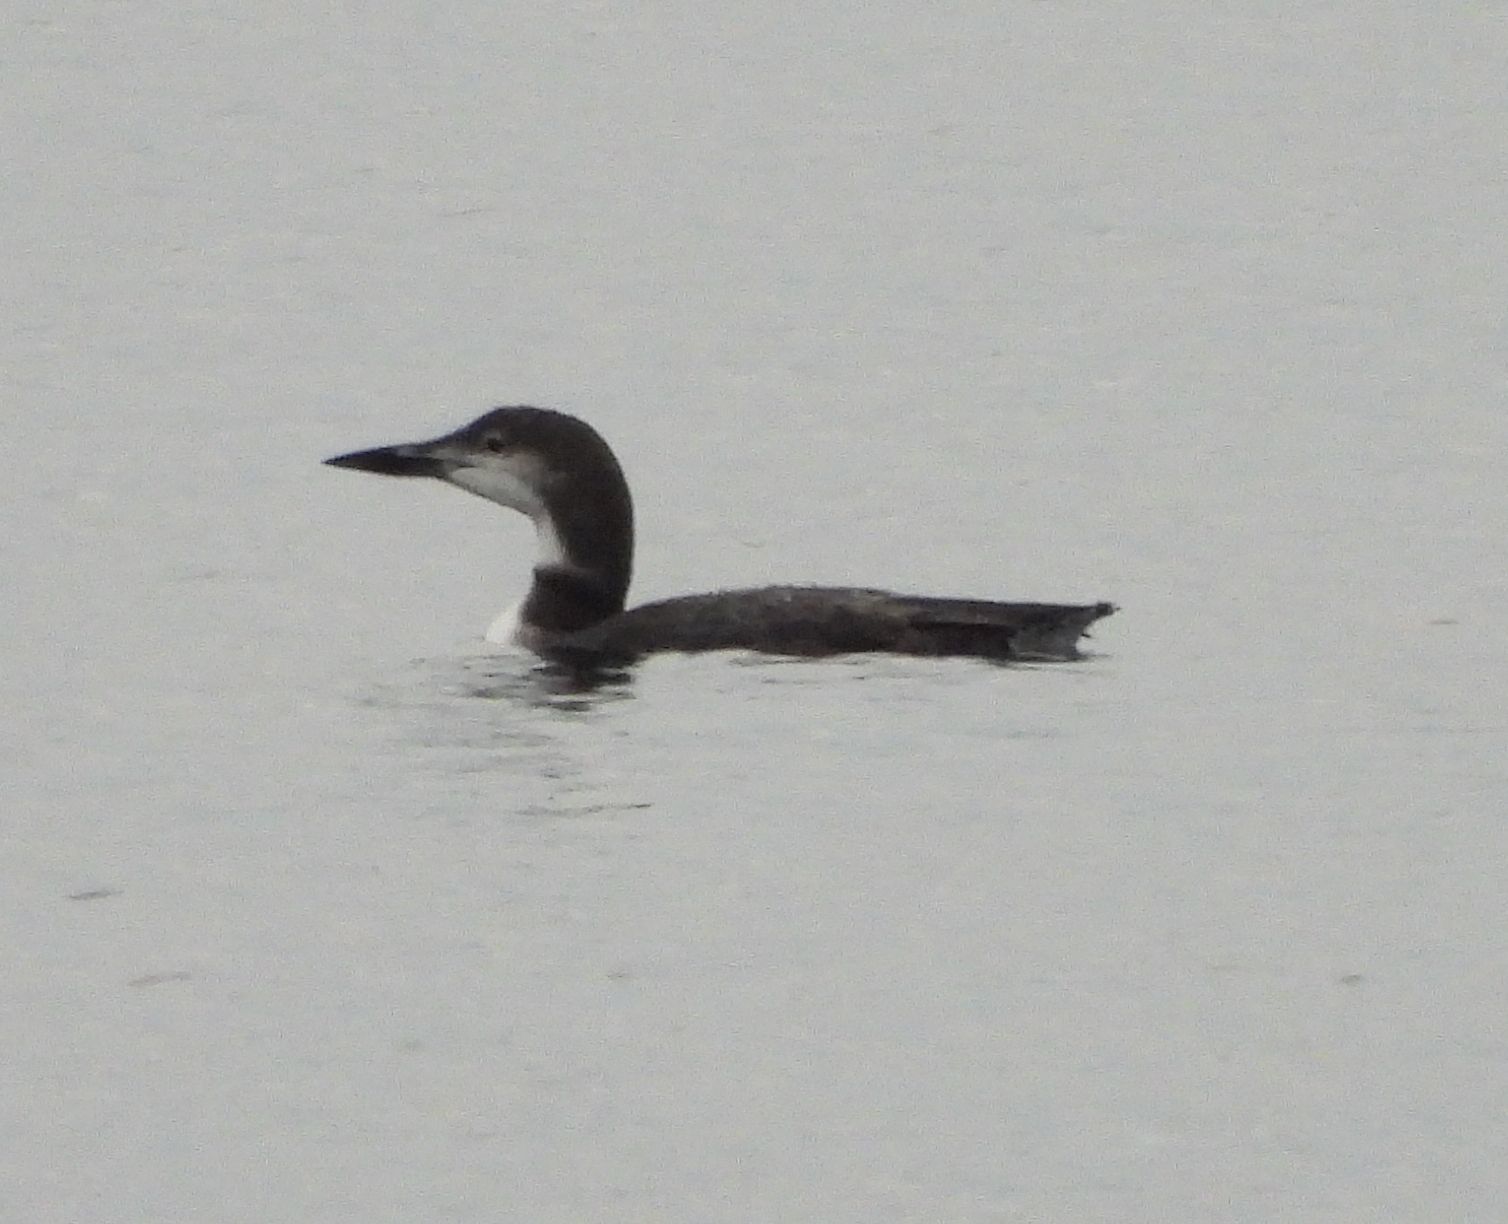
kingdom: Animalia
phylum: Chordata
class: Aves
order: Gaviiformes
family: Gaviidae
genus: Gavia
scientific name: Gavia immer
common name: Common loon
